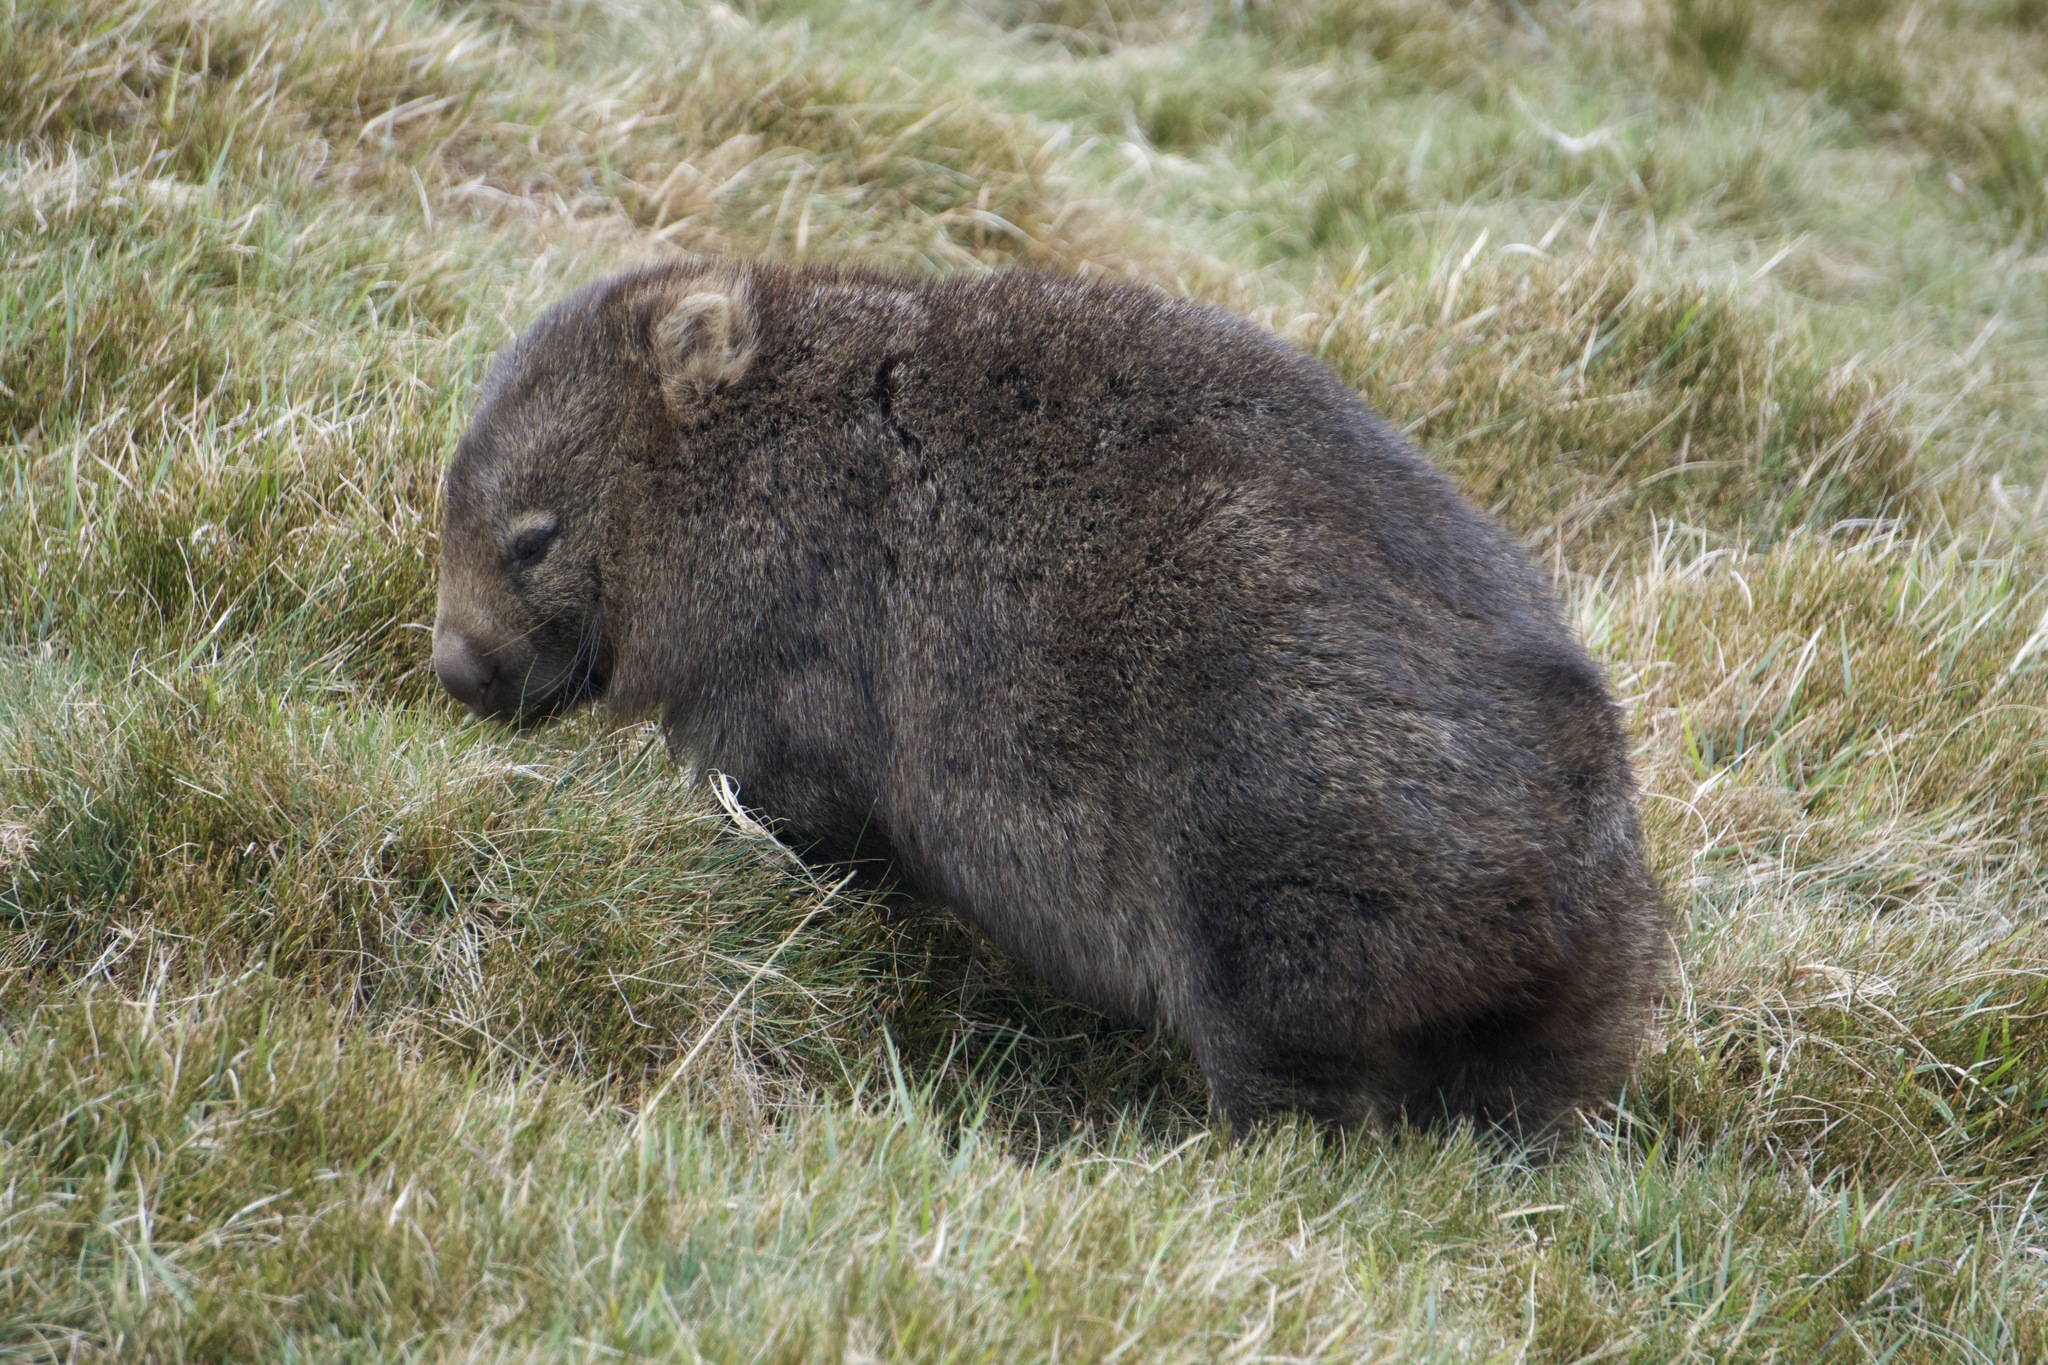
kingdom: Animalia
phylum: Chordata
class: Mammalia
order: Diprotodontia
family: Vombatidae
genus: Vombatus
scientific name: Vombatus ursinus
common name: Common wombat
